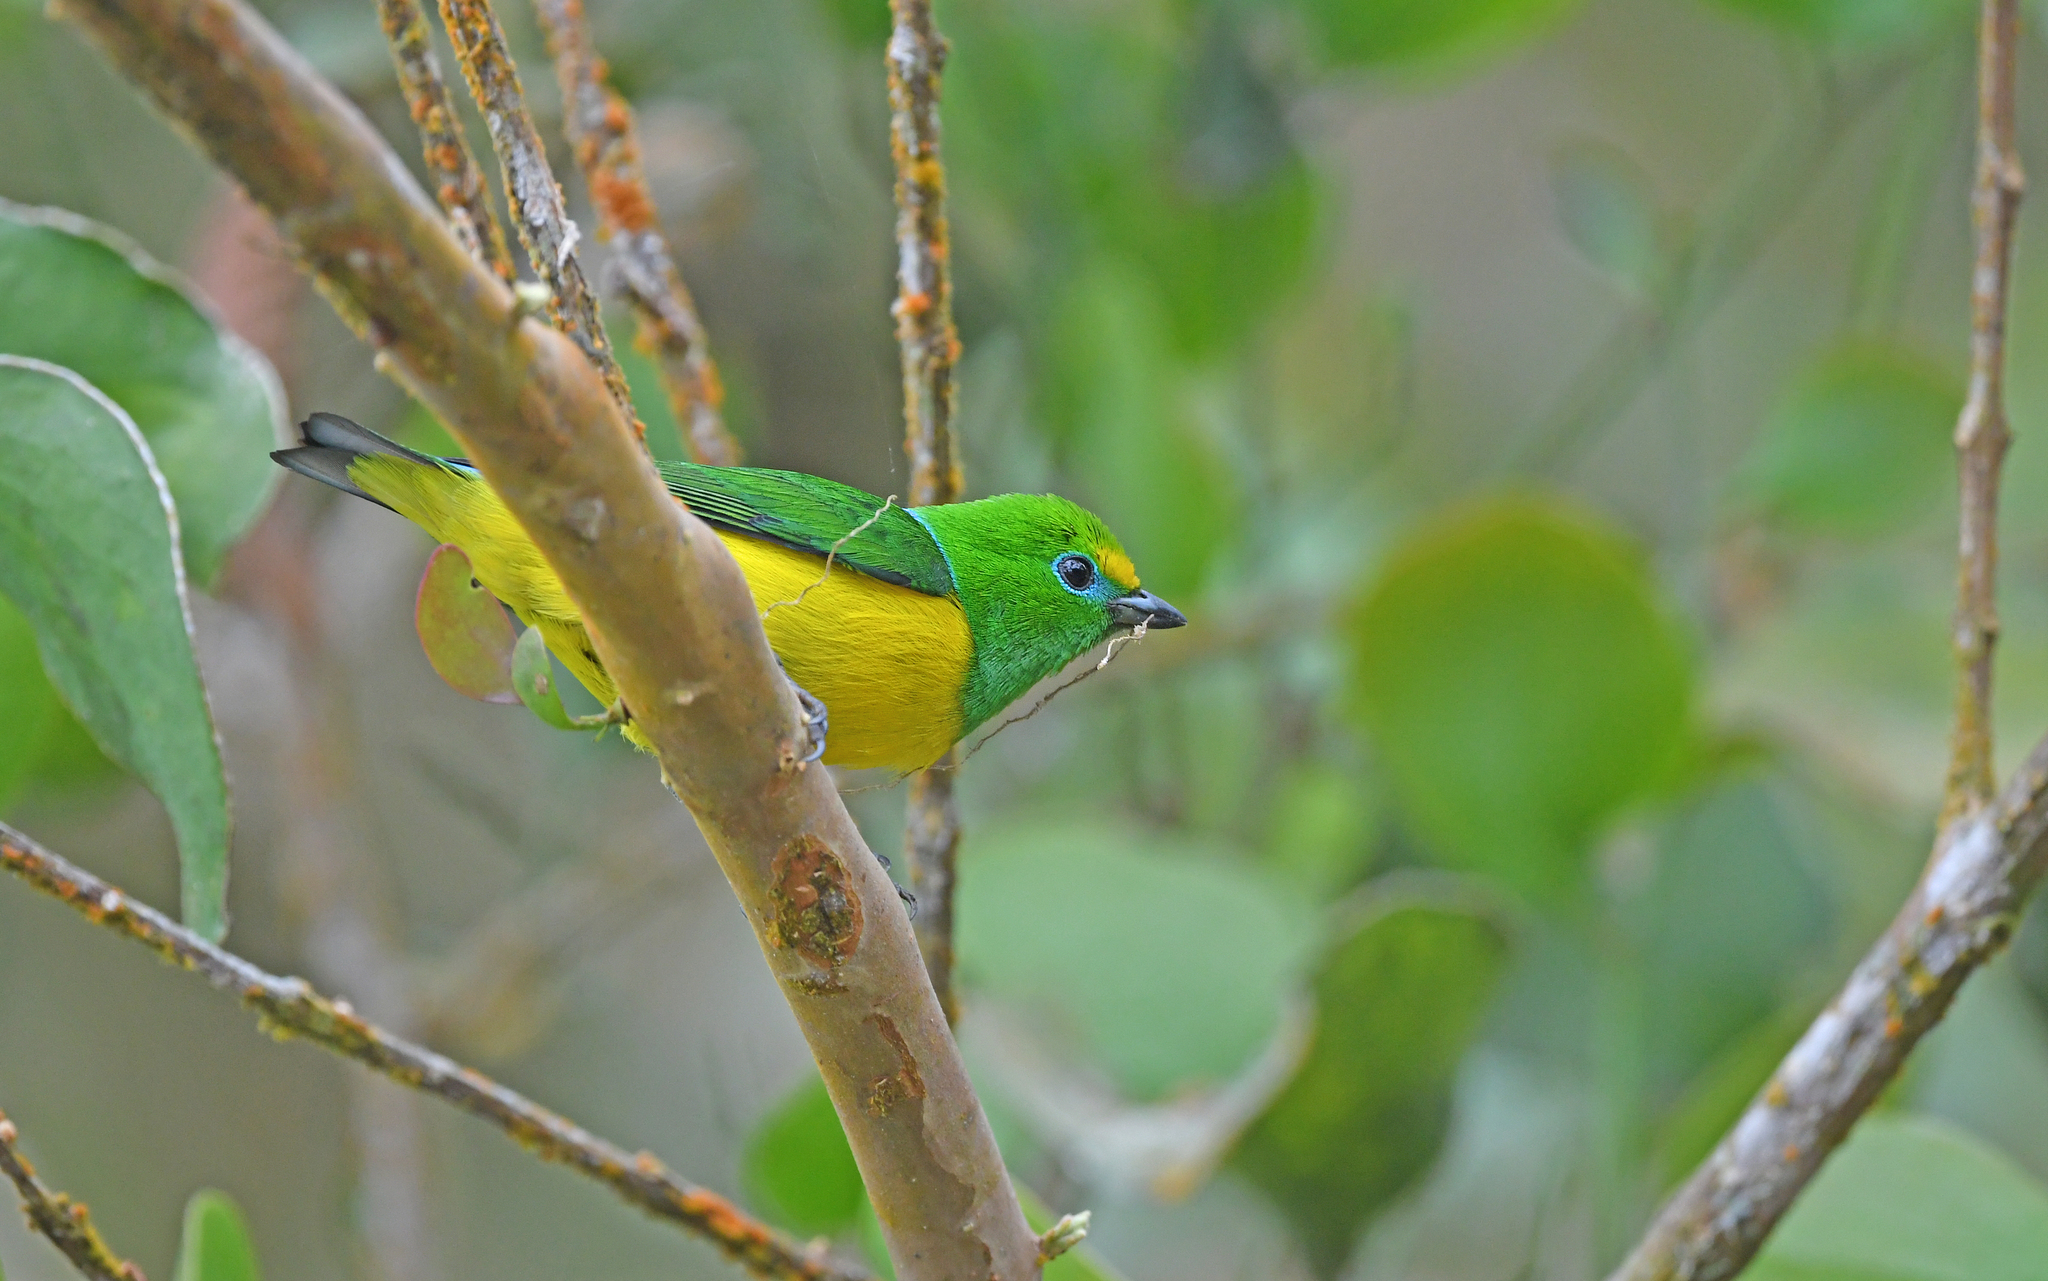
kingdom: Animalia
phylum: Chordata
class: Aves
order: Passeriformes
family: Fringillidae
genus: Chlorophonia
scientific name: Chlorophonia cyanea
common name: Blue-naped chlorophonia
